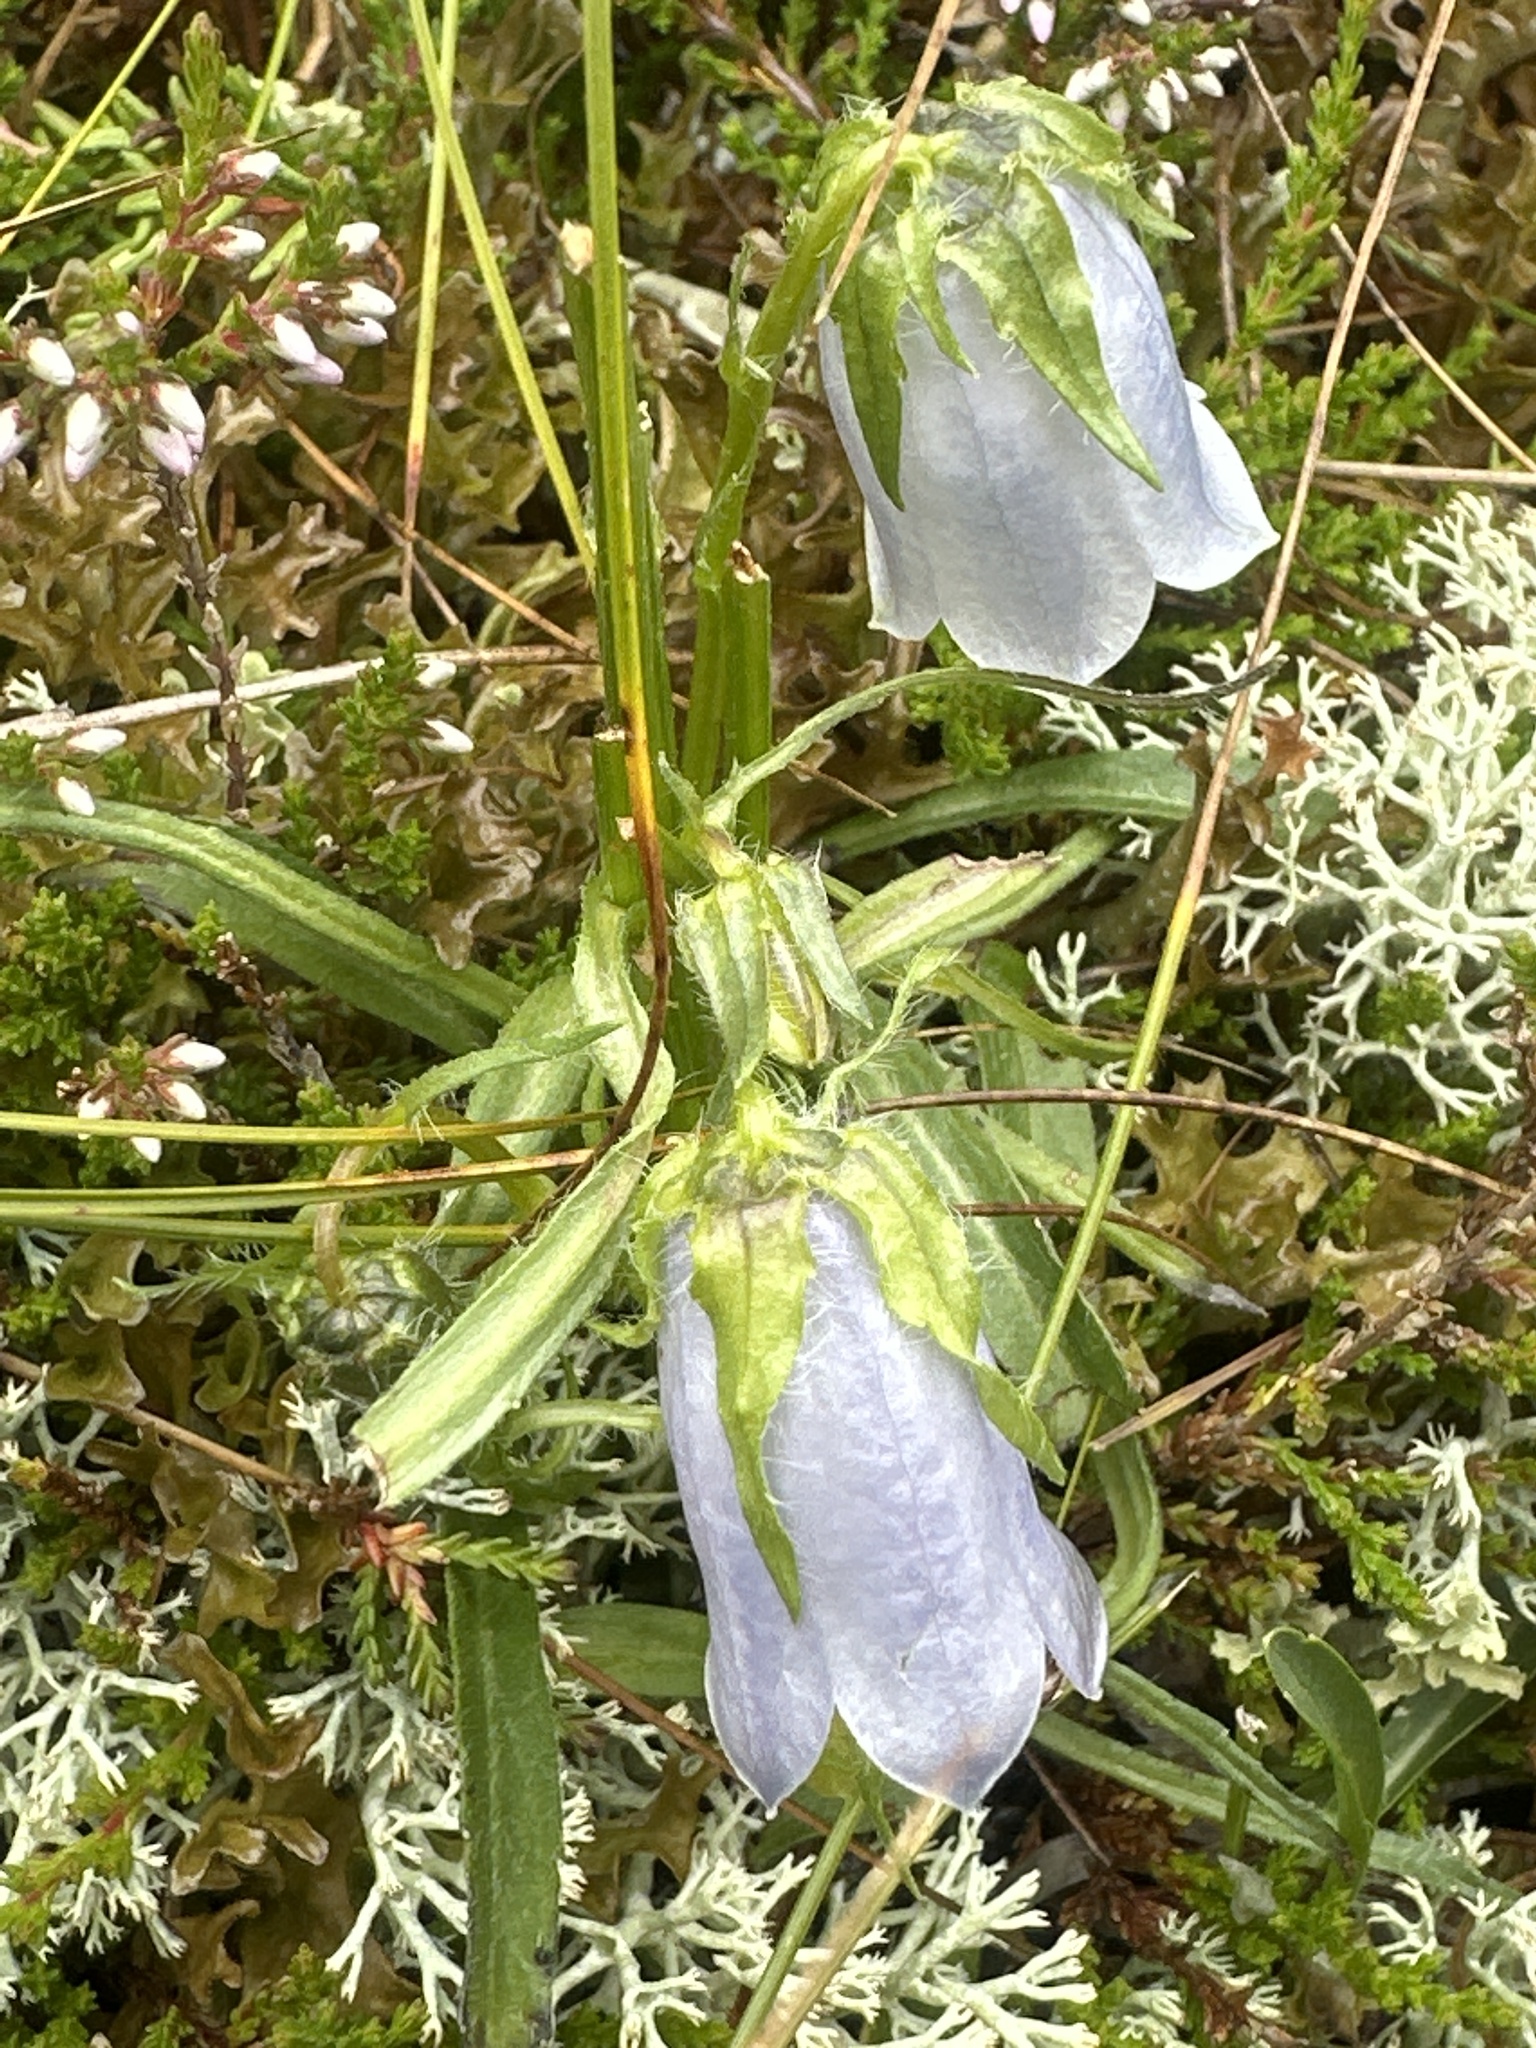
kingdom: Plantae
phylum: Tracheophyta
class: Magnoliopsida
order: Asterales
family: Campanulaceae
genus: Campanula
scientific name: Campanula alpina
